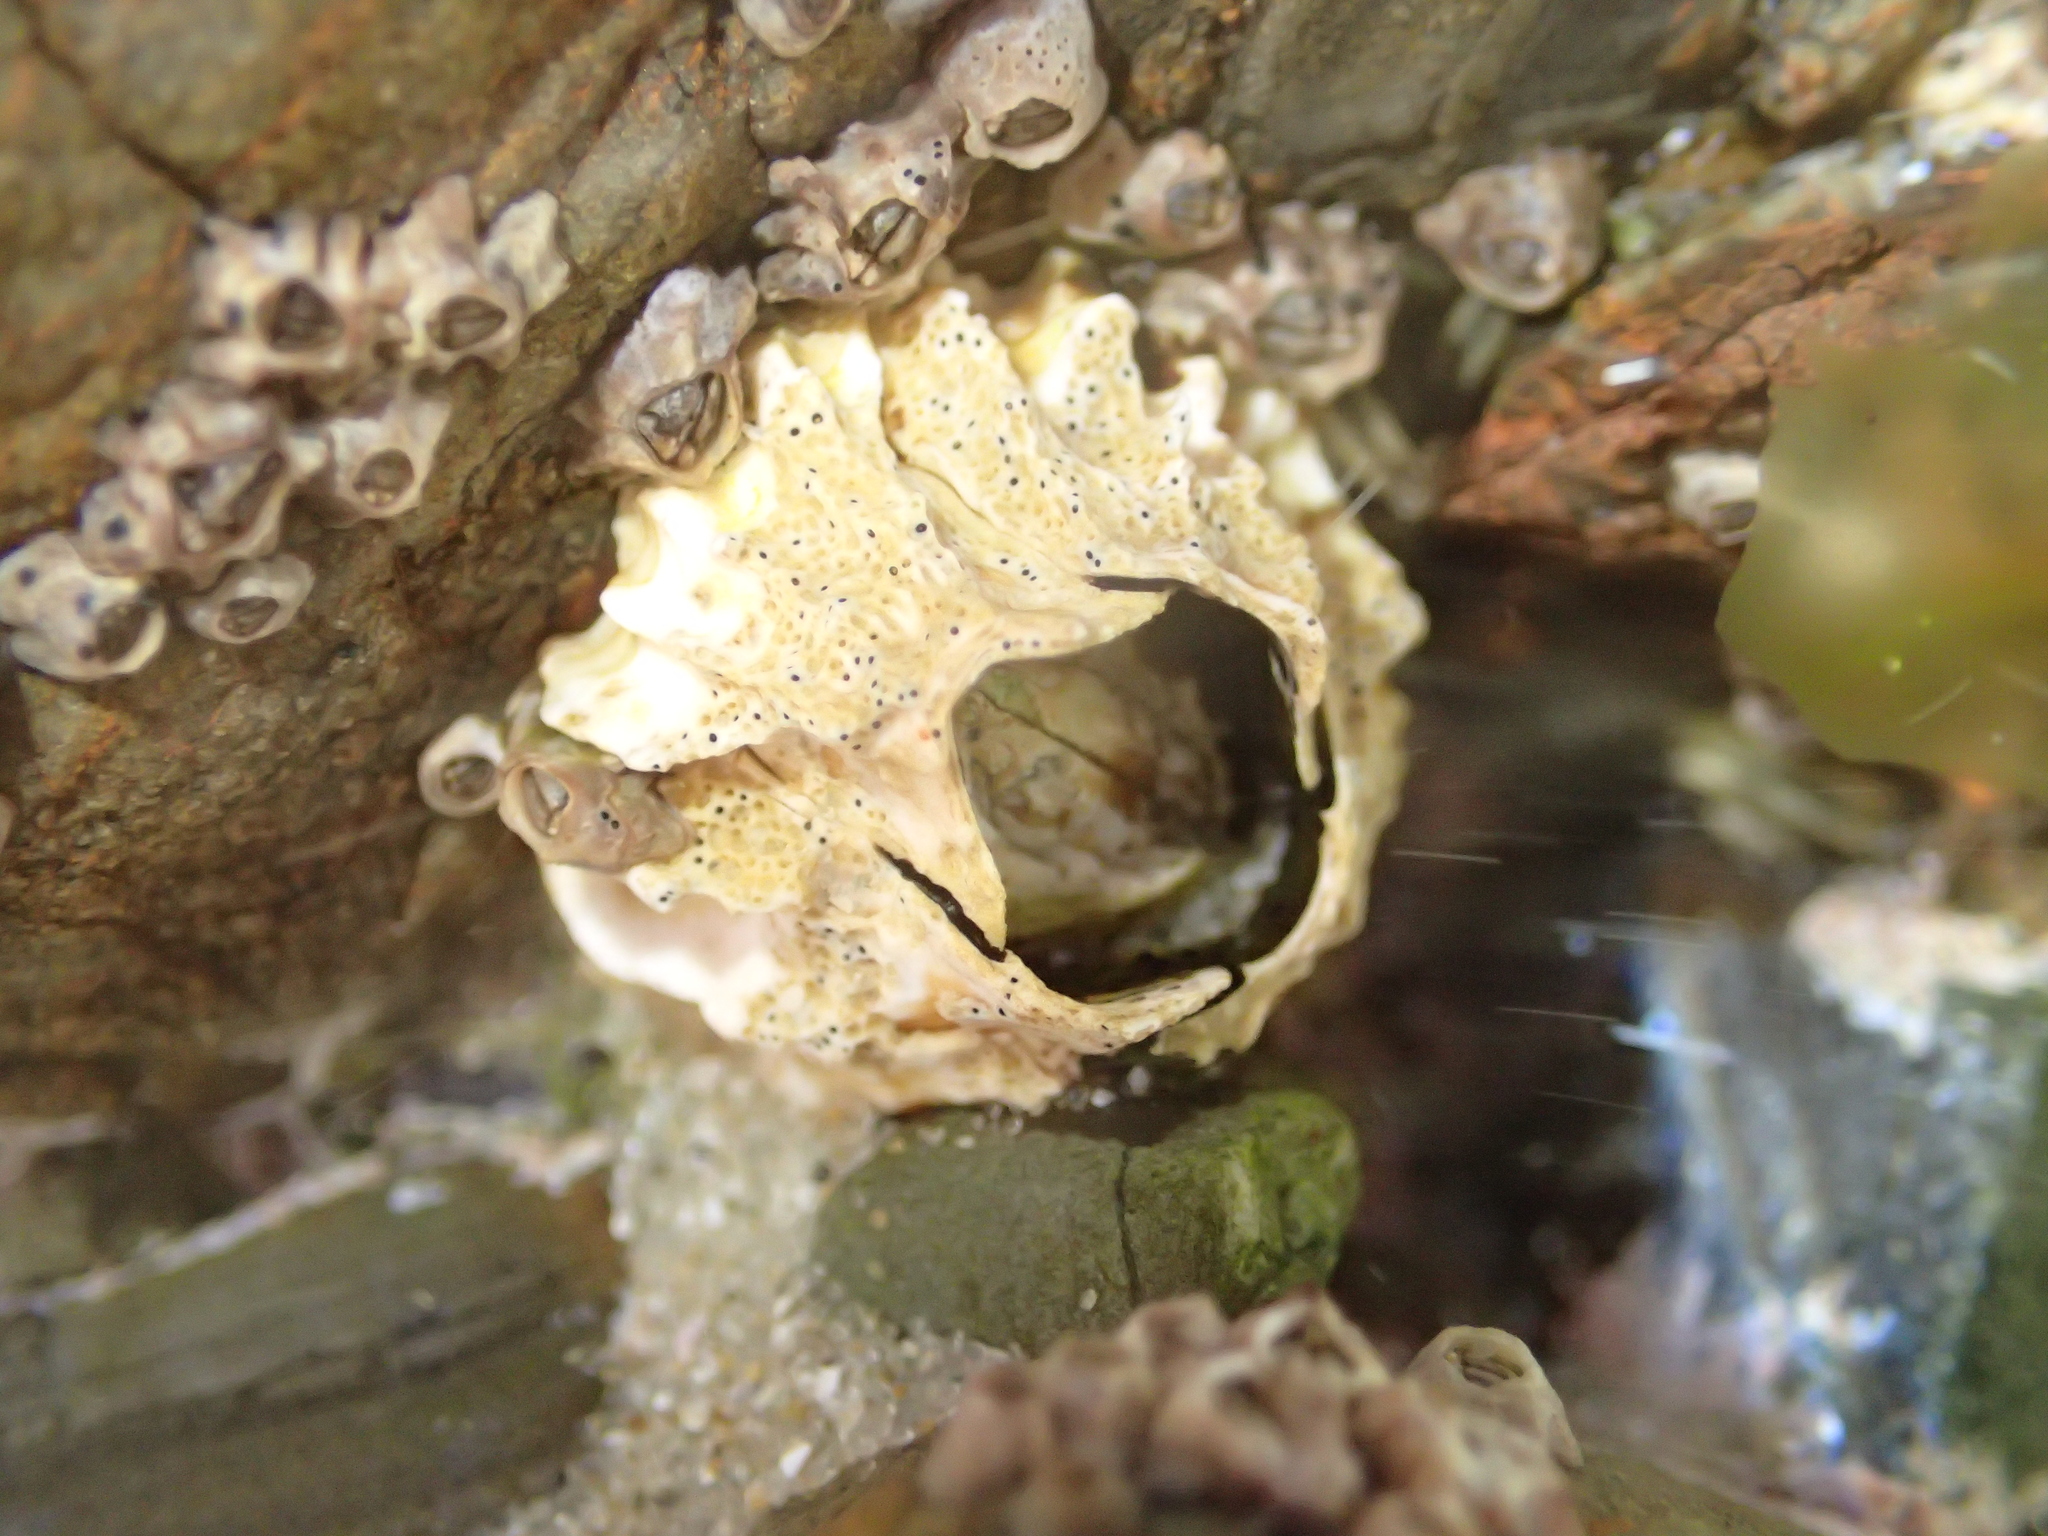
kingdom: Animalia
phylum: Arthropoda
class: Maxillopoda
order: Sessilia
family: Tetraclitidae
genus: Epopella
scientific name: Epopella plicata
